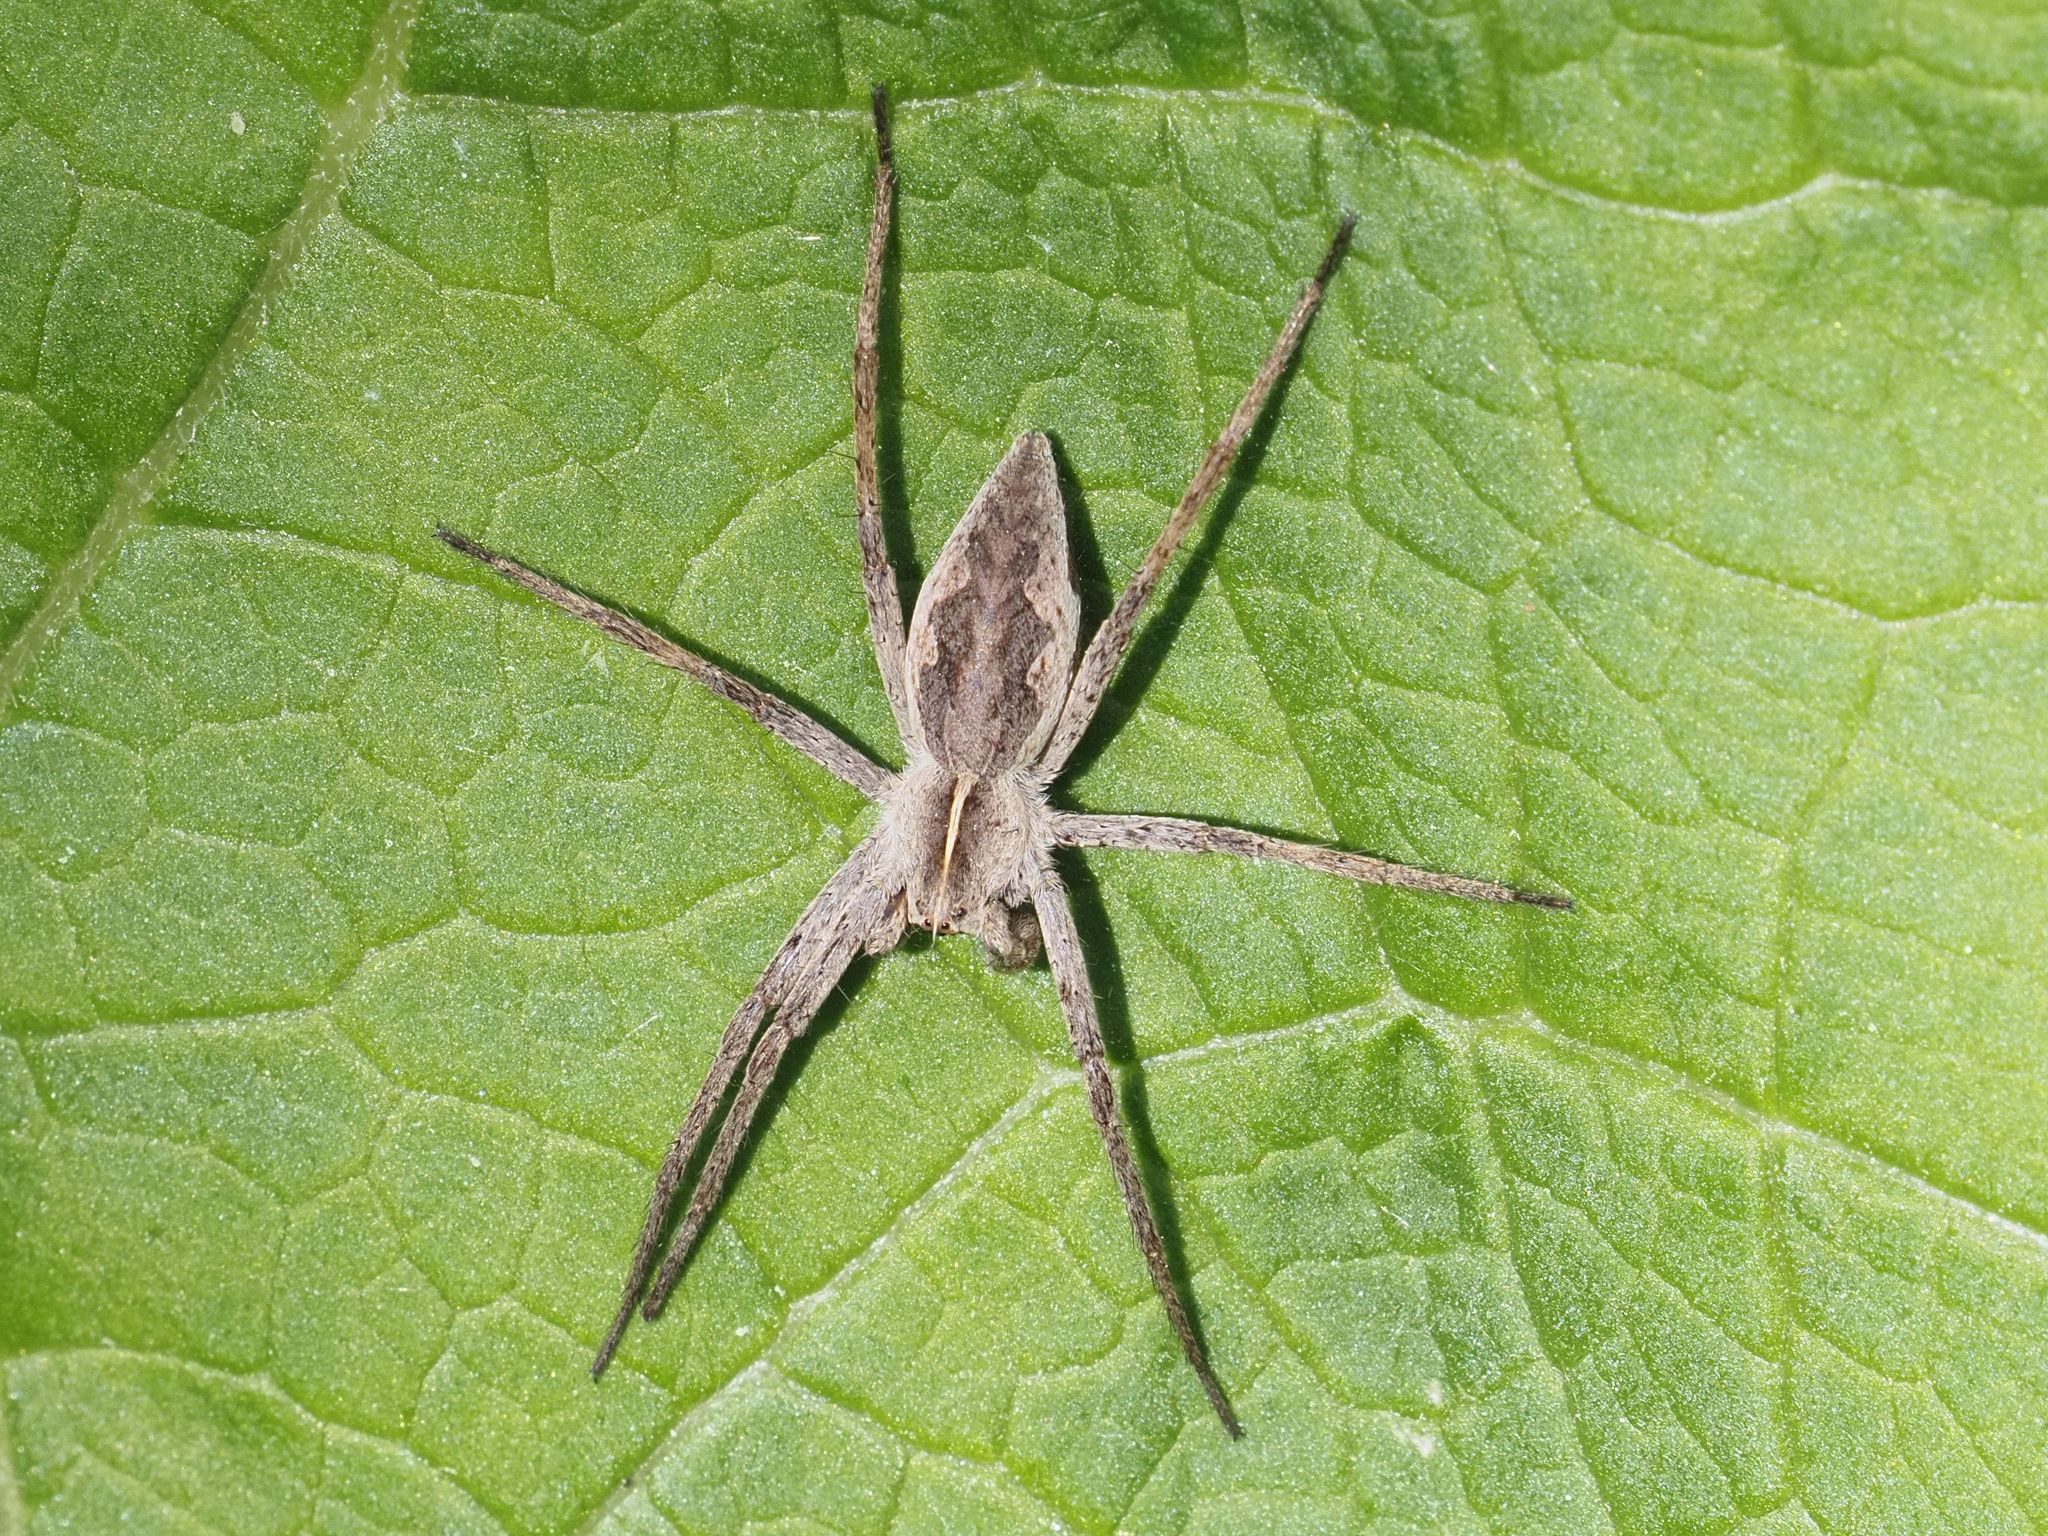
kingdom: Animalia
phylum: Arthropoda
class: Arachnida
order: Araneae
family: Pisauridae
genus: Pisaura
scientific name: Pisaura mirabilis
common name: Tent spider
